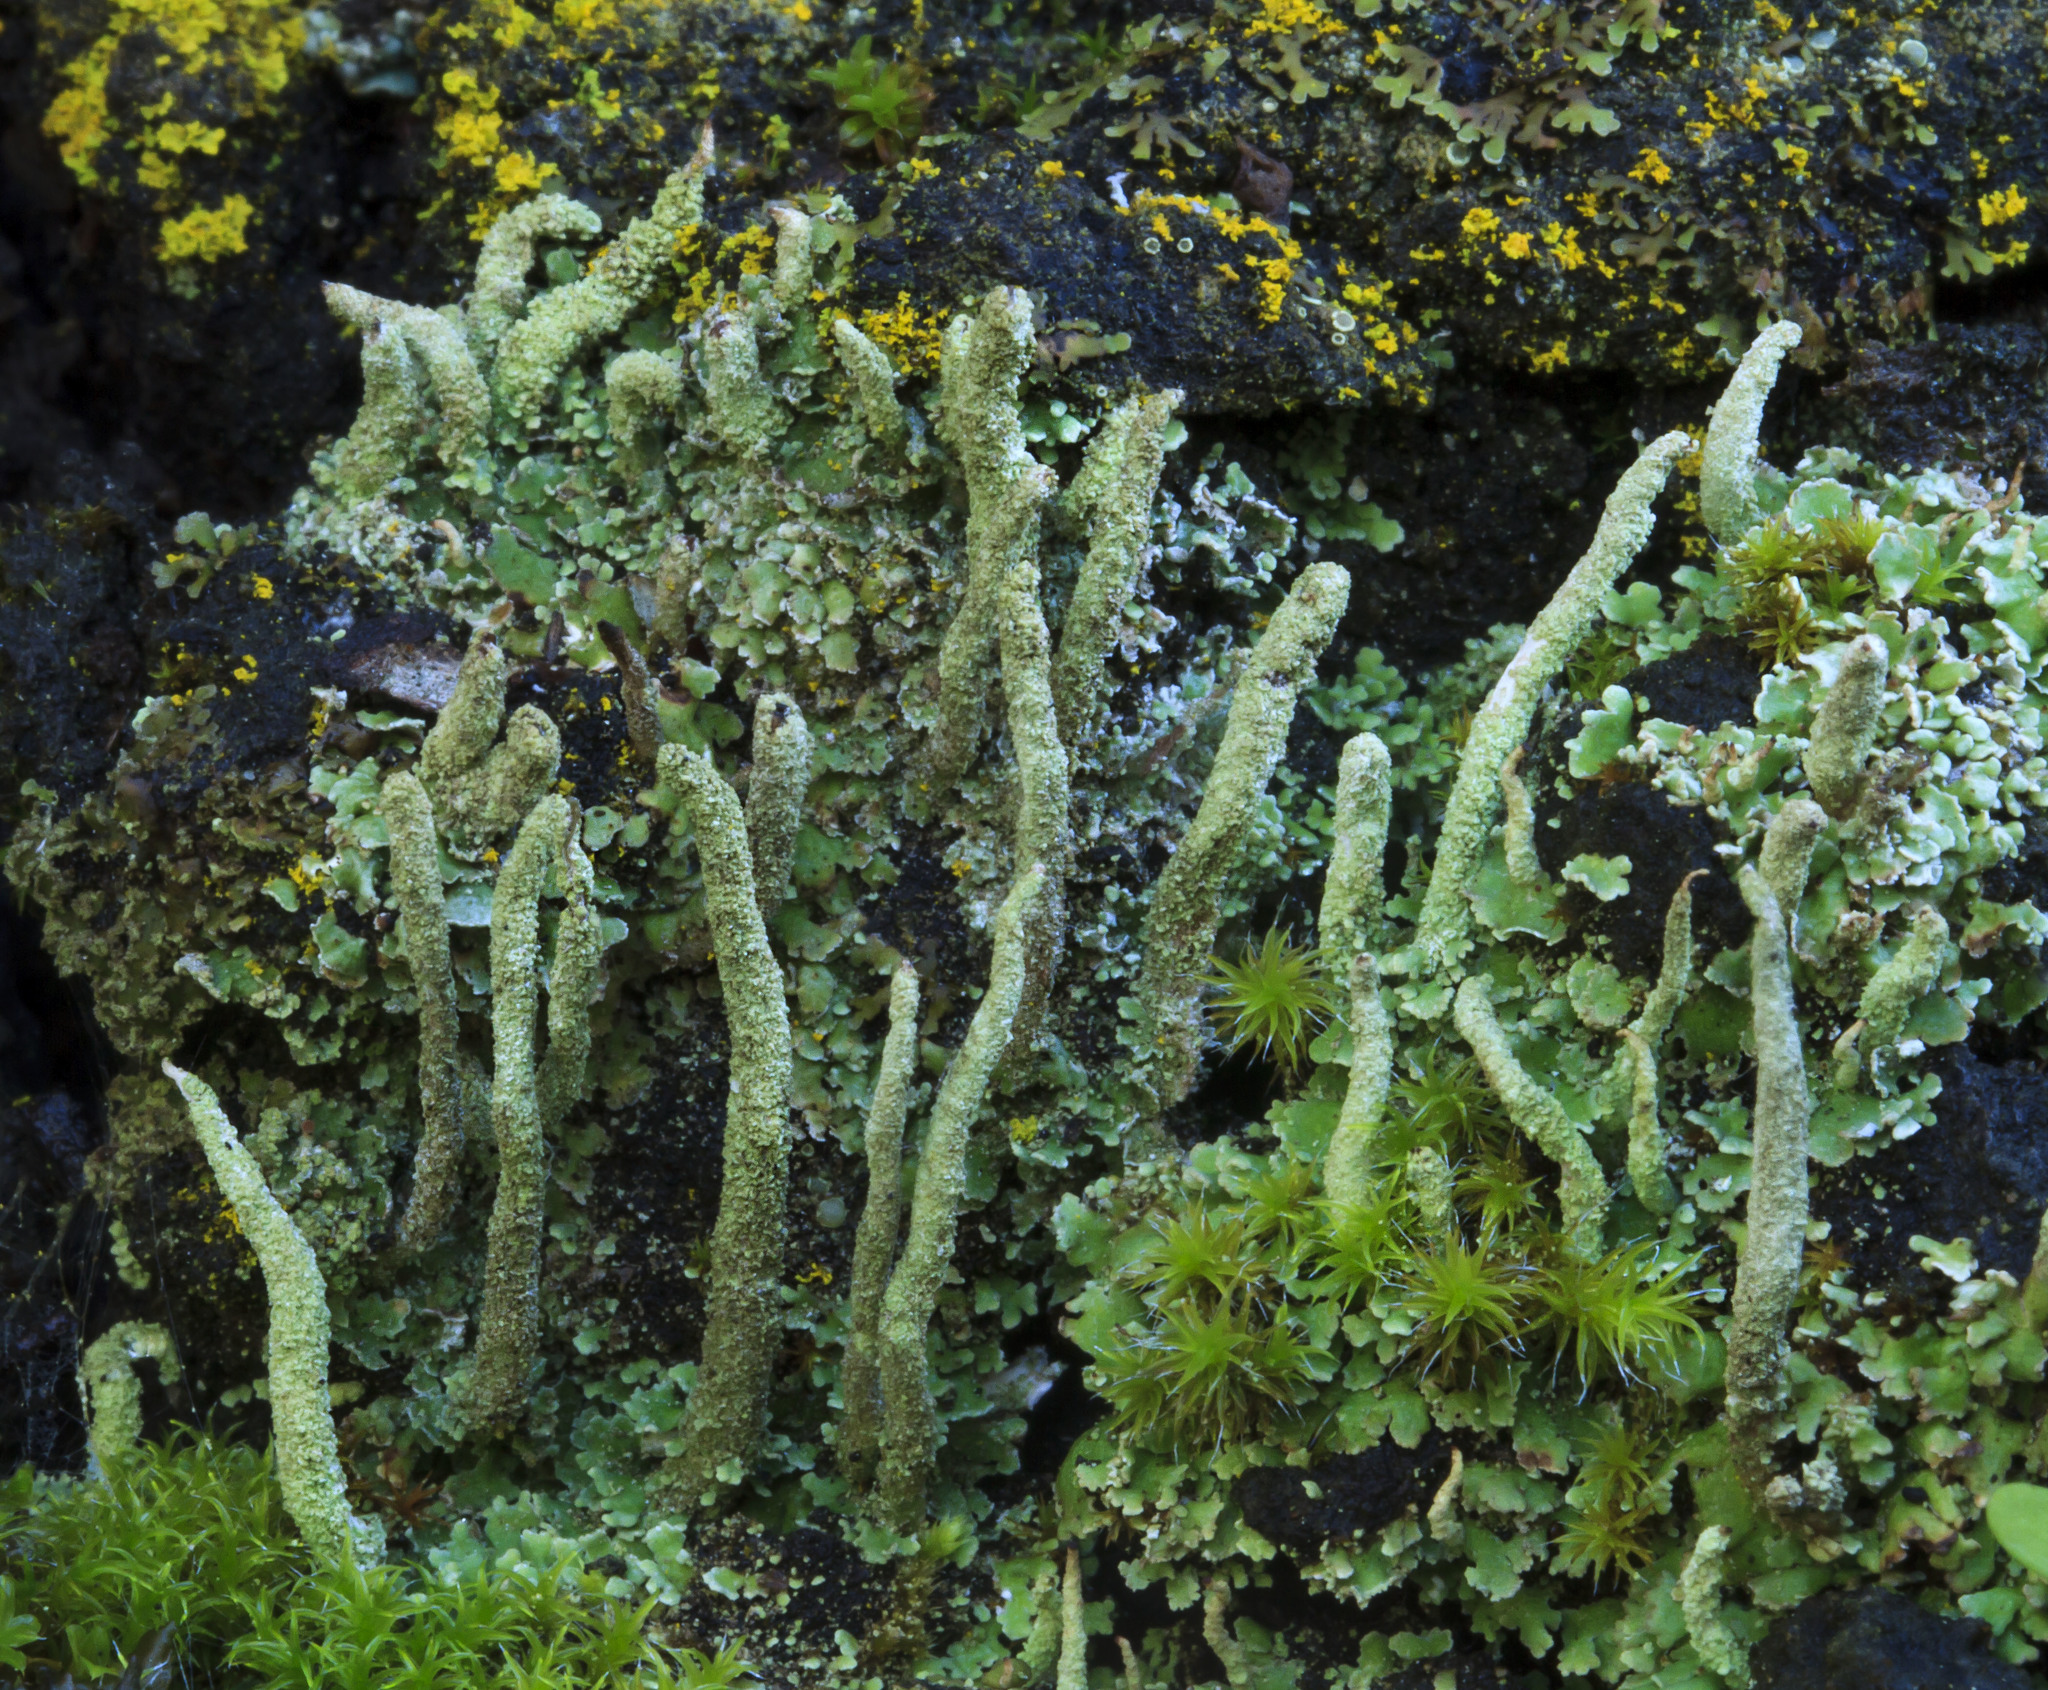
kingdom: Fungi
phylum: Ascomycota
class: Lecanoromycetes
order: Lecanorales
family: Cladoniaceae
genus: Cladonia
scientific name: Cladonia ochrochlora
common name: Smooth-footed powderhorn
